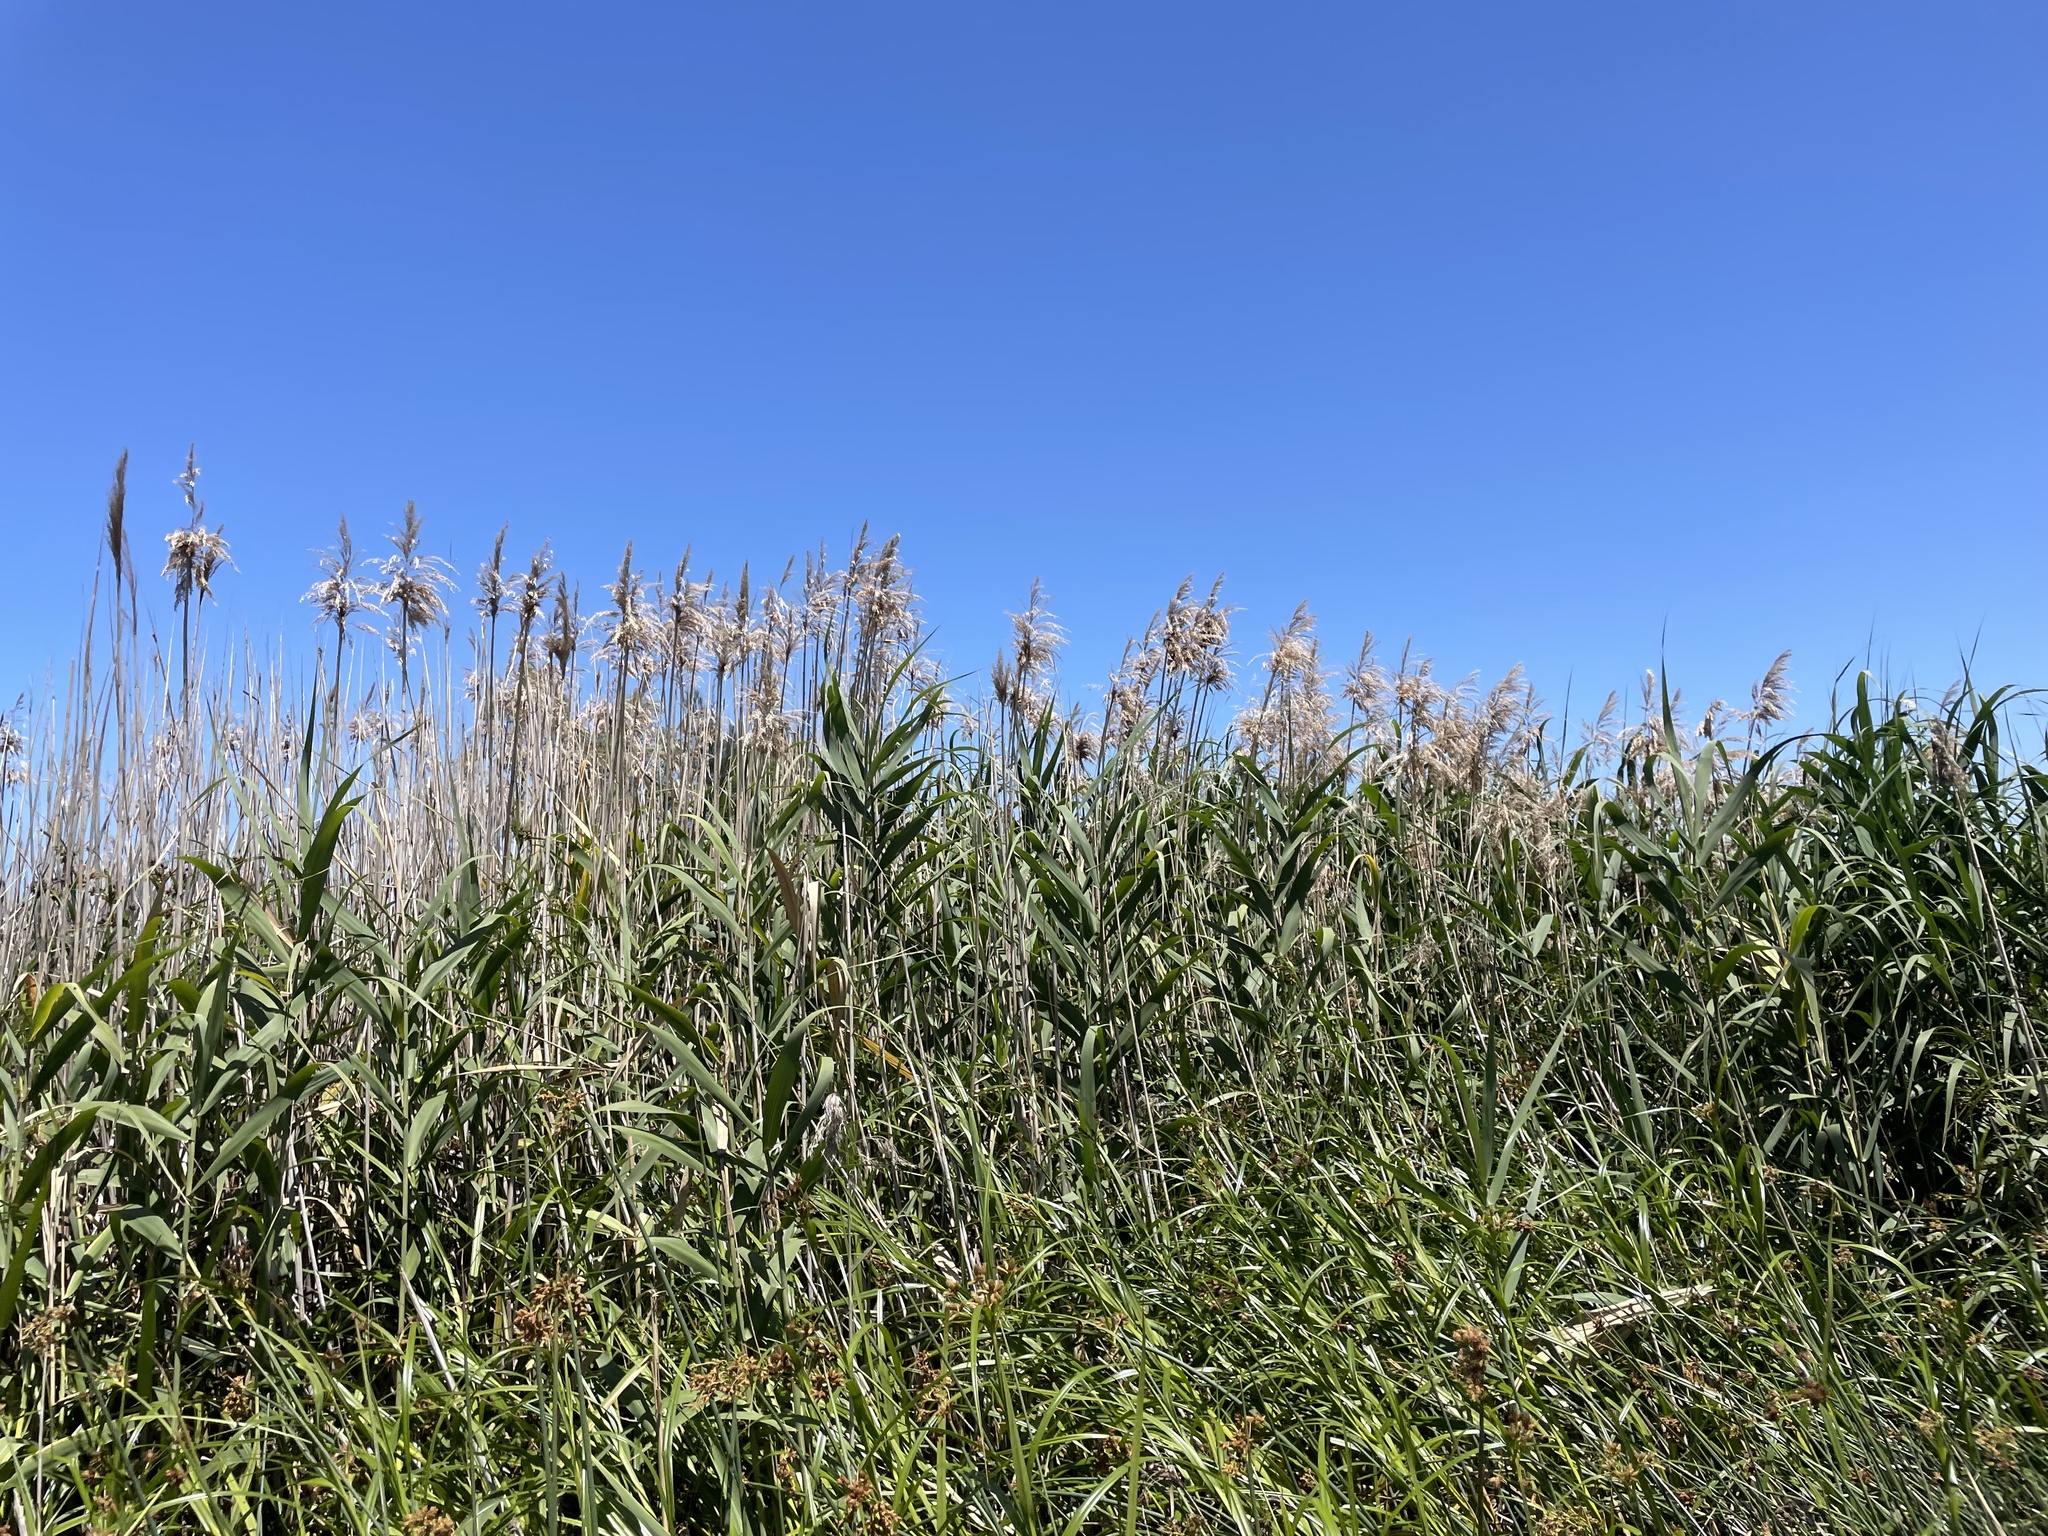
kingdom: Plantae
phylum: Tracheophyta
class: Liliopsida
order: Poales
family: Poaceae
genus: Phragmites
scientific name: Phragmites australis
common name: Common reed
